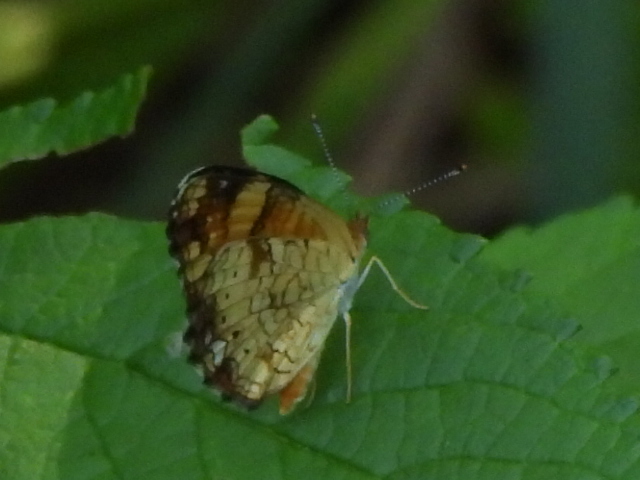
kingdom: Animalia
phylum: Arthropoda
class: Insecta
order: Lepidoptera
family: Nymphalidae
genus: Phyciodes
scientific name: Phyciodes tharos
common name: Pearl crescent
